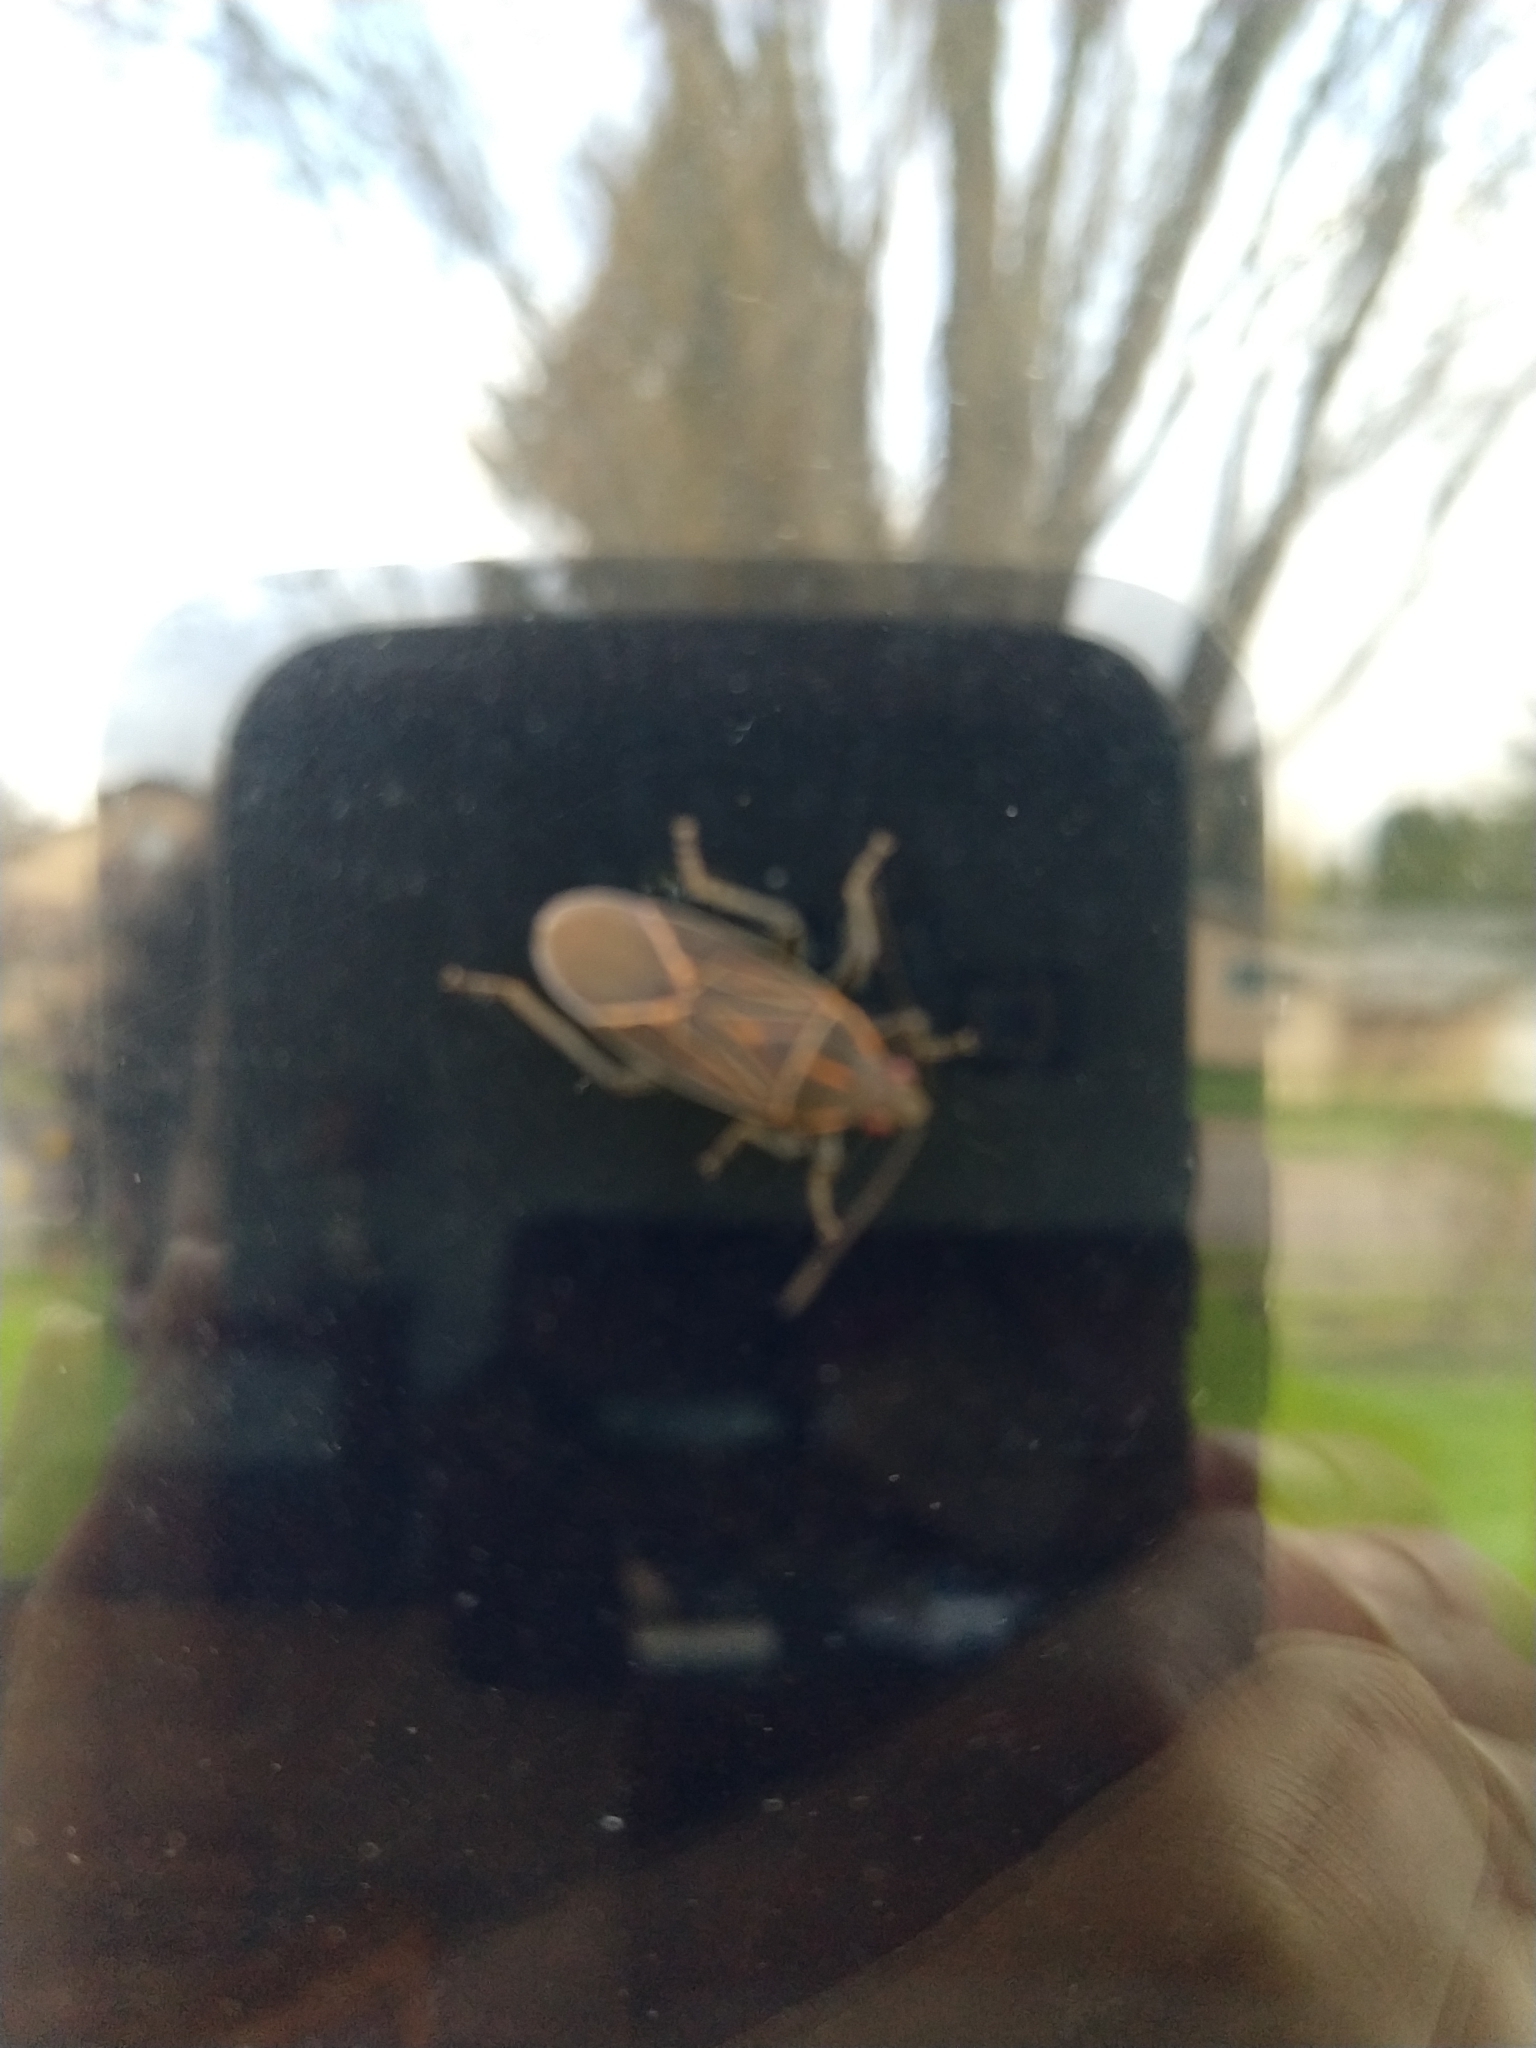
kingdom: Animalia
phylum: Arthropoda
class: Insecta
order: Hemiptera
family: Rhopalidae
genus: Boisea
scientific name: Boisea rubrolineata
